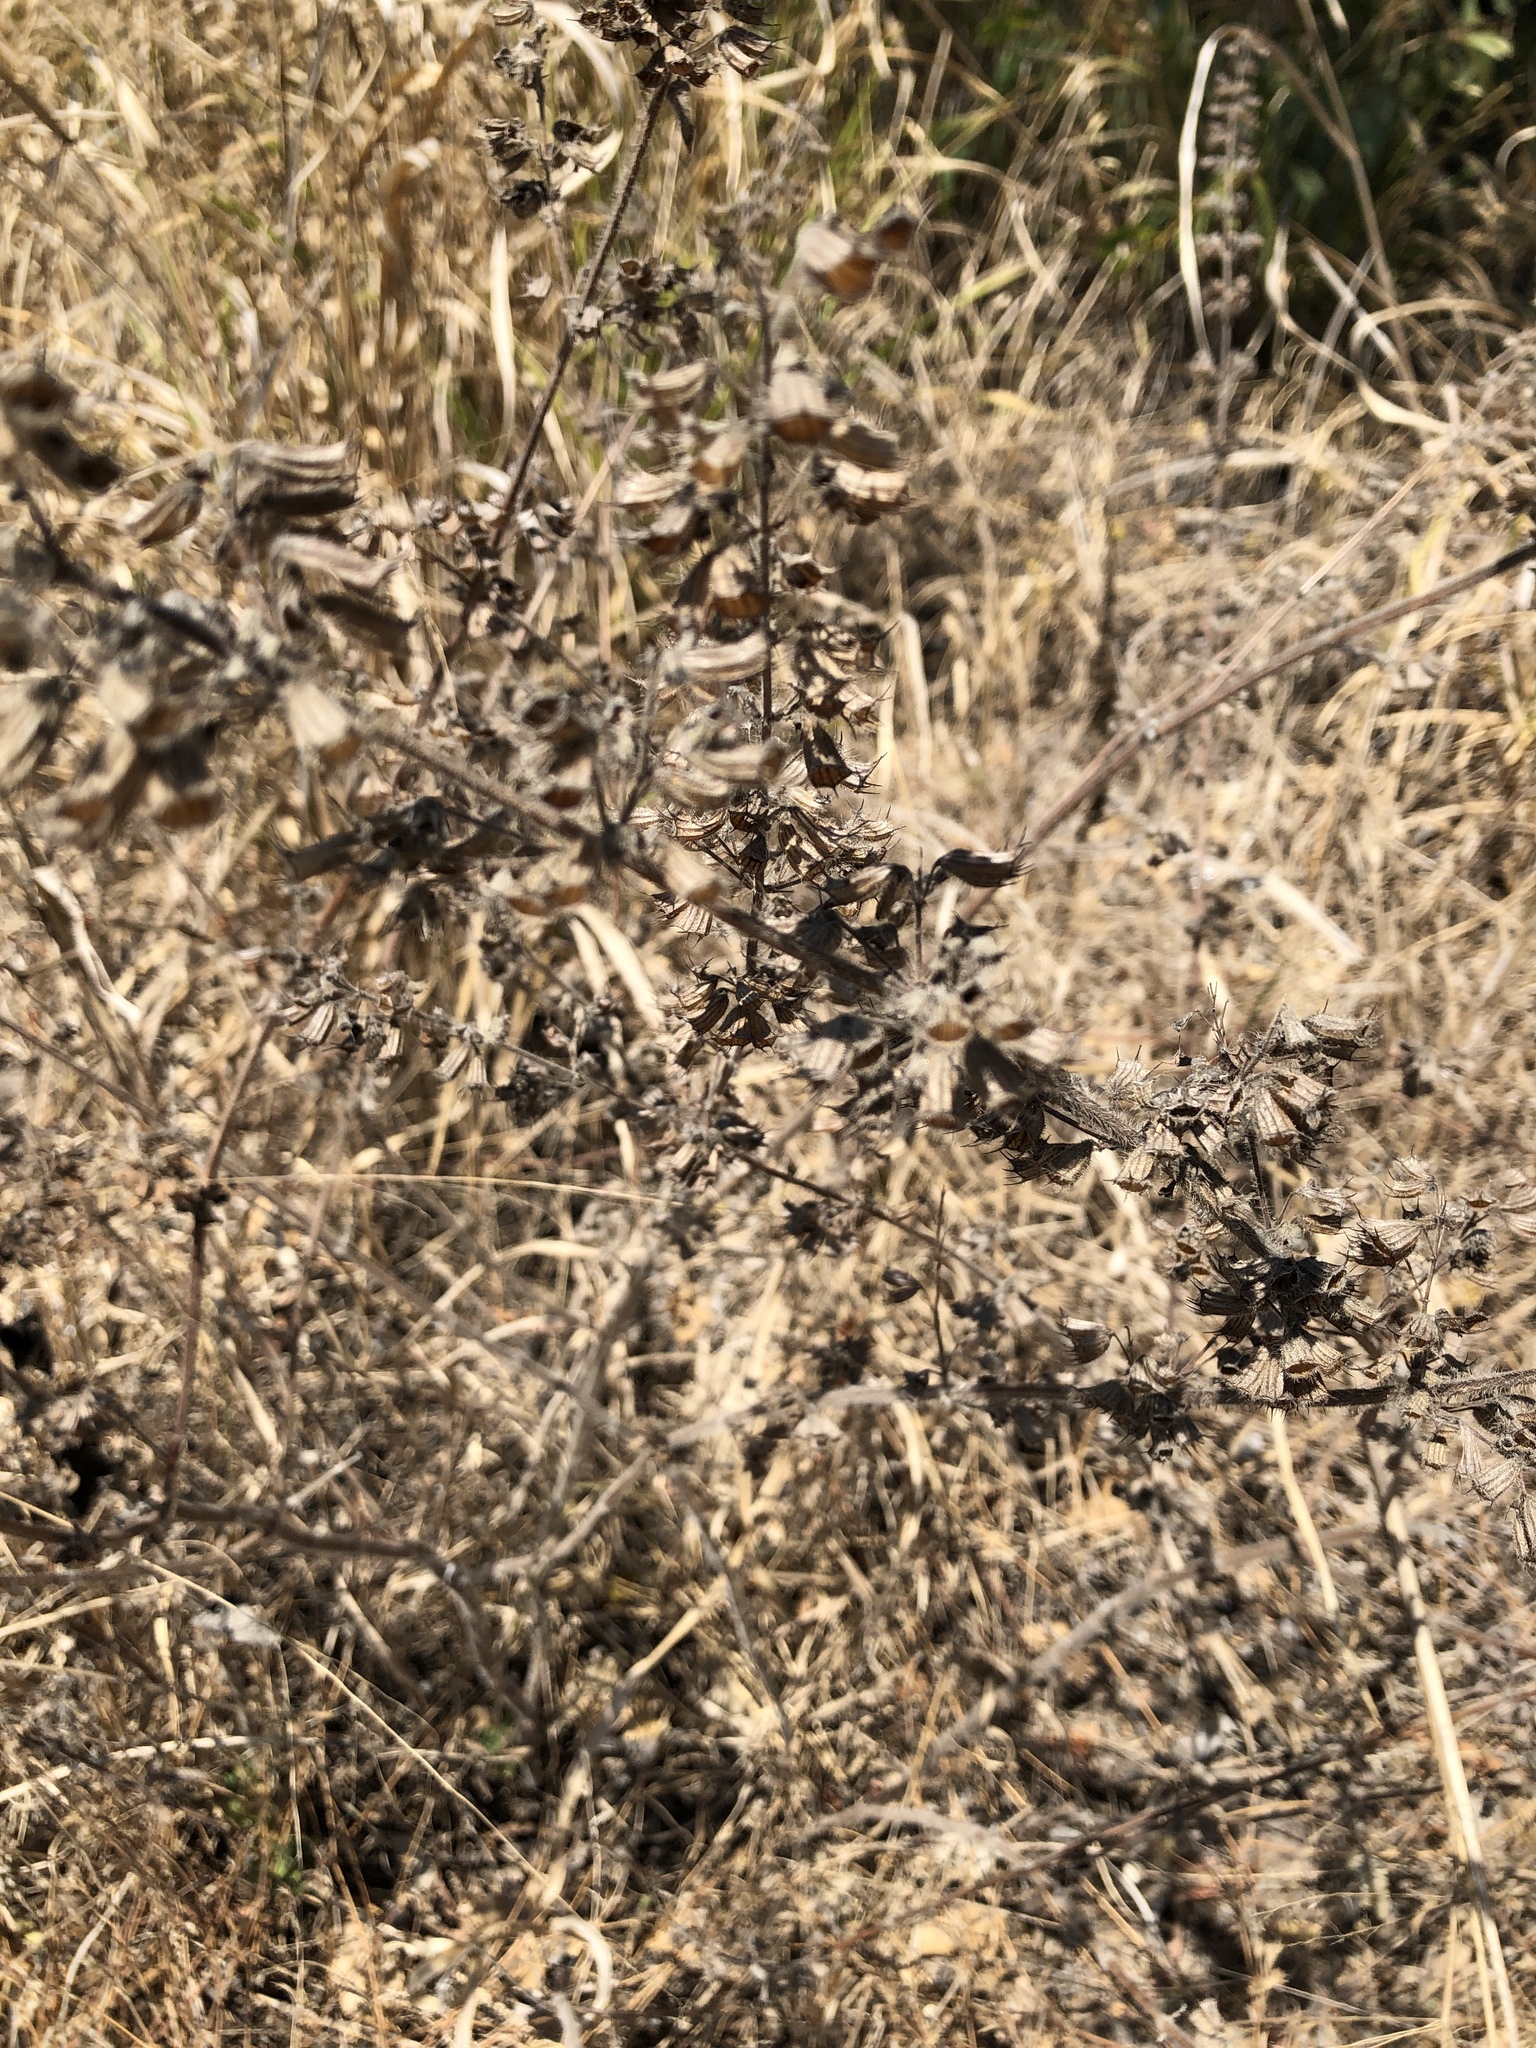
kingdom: Plantae
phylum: Tracheophyta
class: Magnoliopsida
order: Lamiales
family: Lamiaceae
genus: Mesosphaerum
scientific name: Mesosphaerum suaveolens
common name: Pignut
